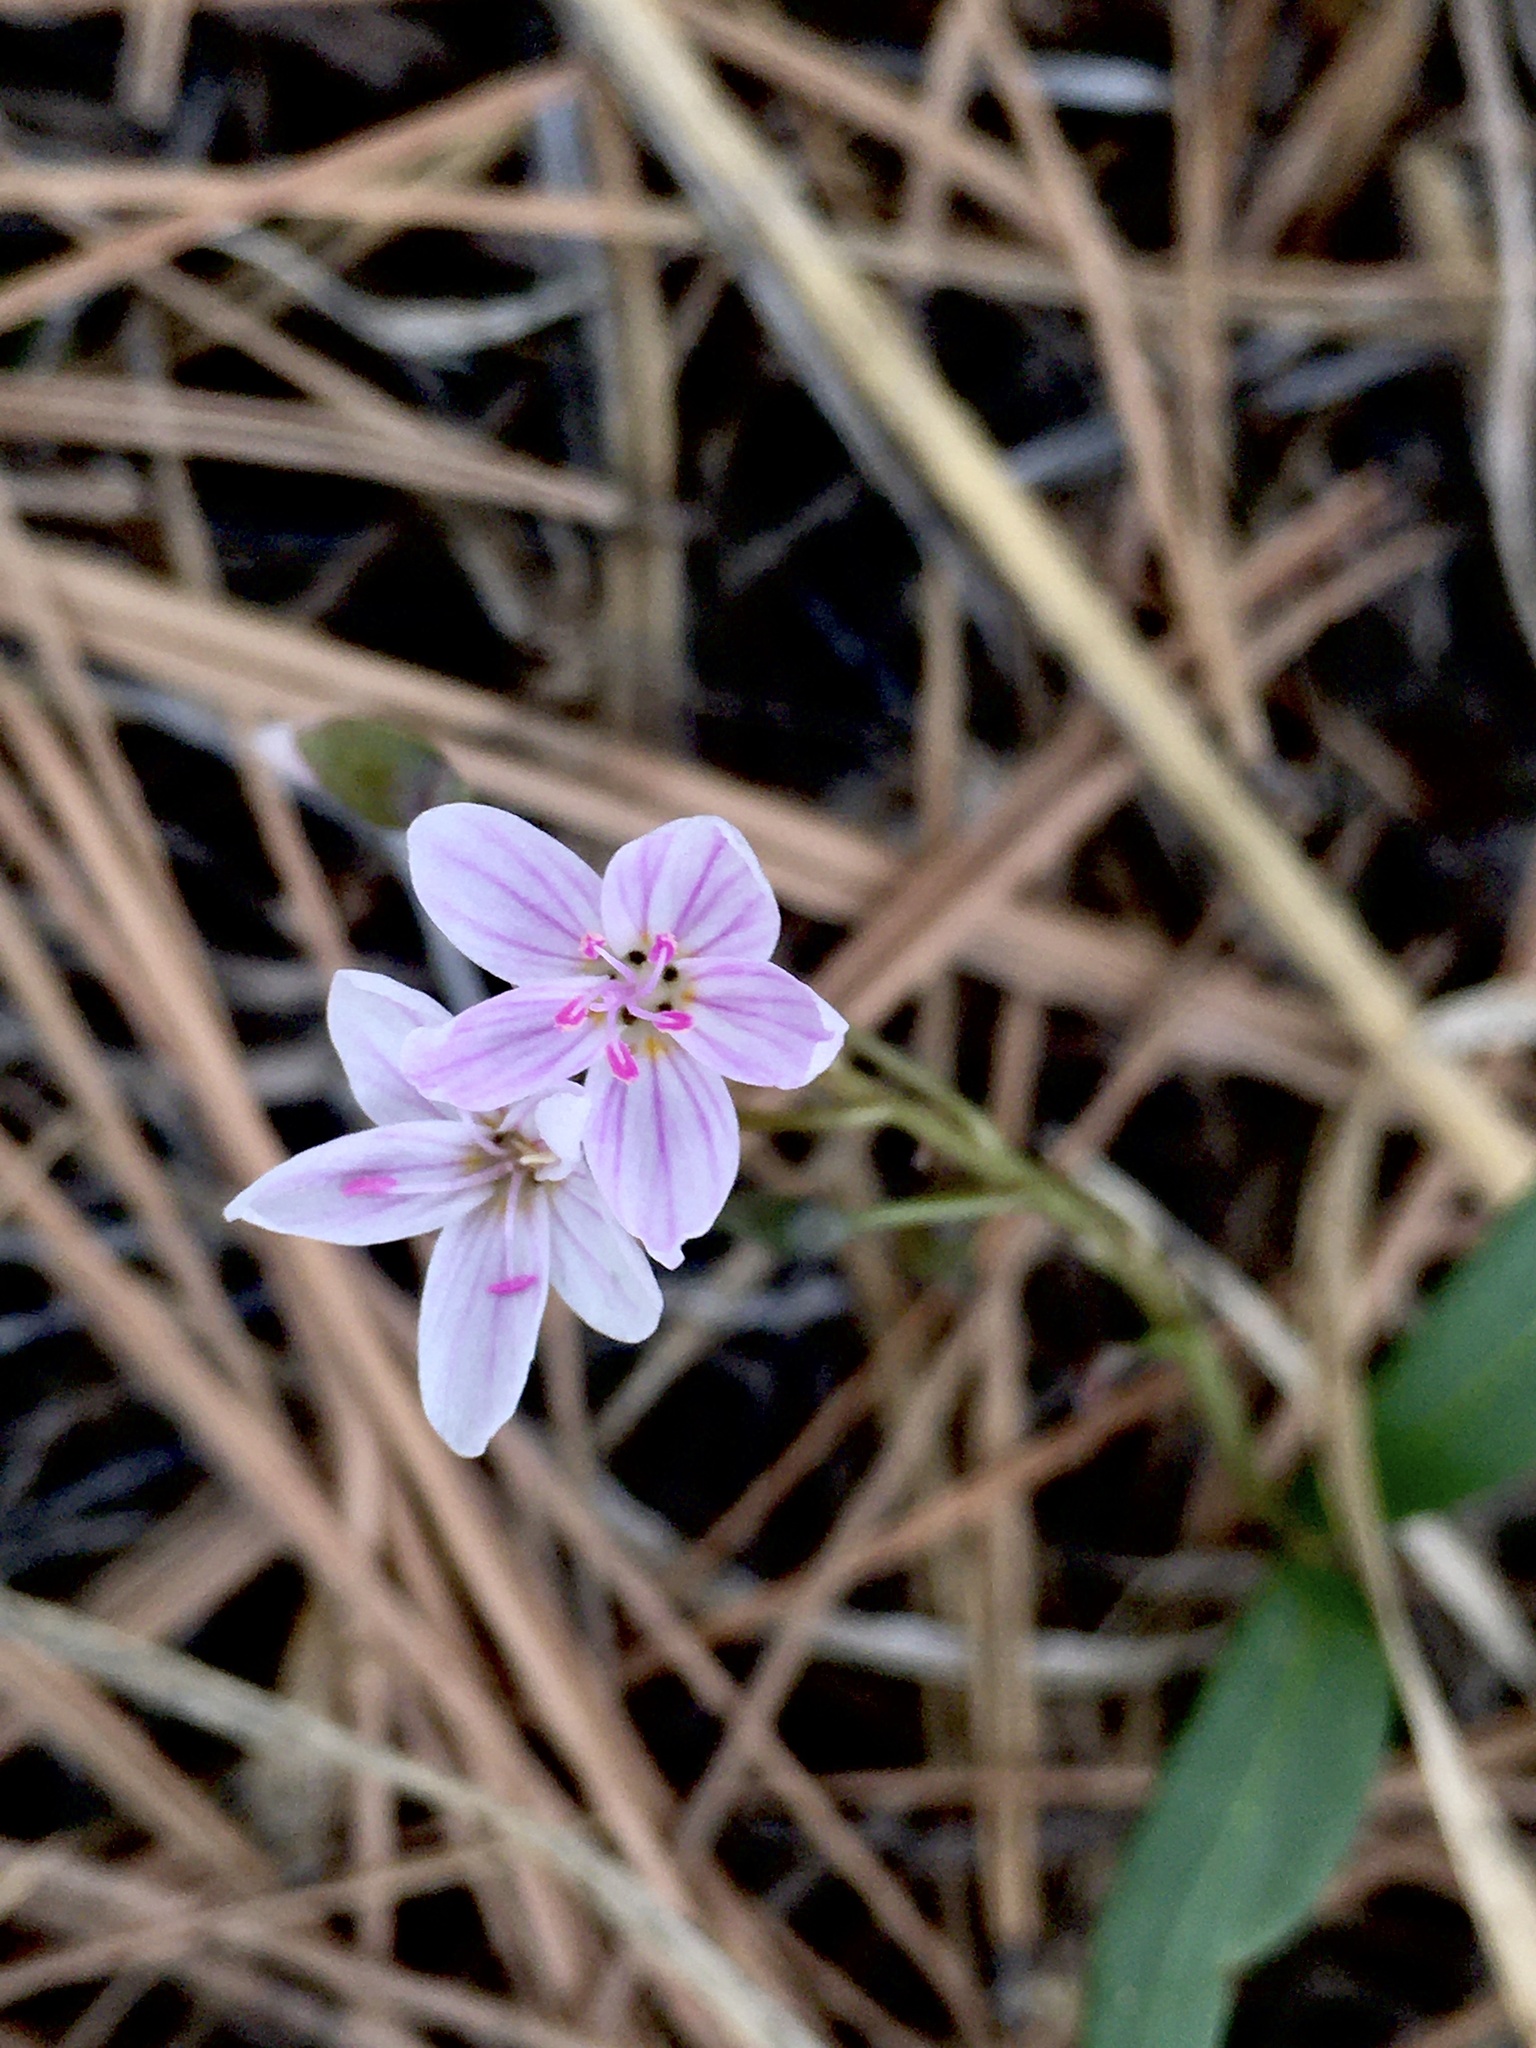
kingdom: Plantae
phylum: Tracheophyta
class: Magnoliopsida
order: Caryophyllales
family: Montiaceae
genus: Claytonia
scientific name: Claytonia rosea
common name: Rocky mountain spring-beauty
